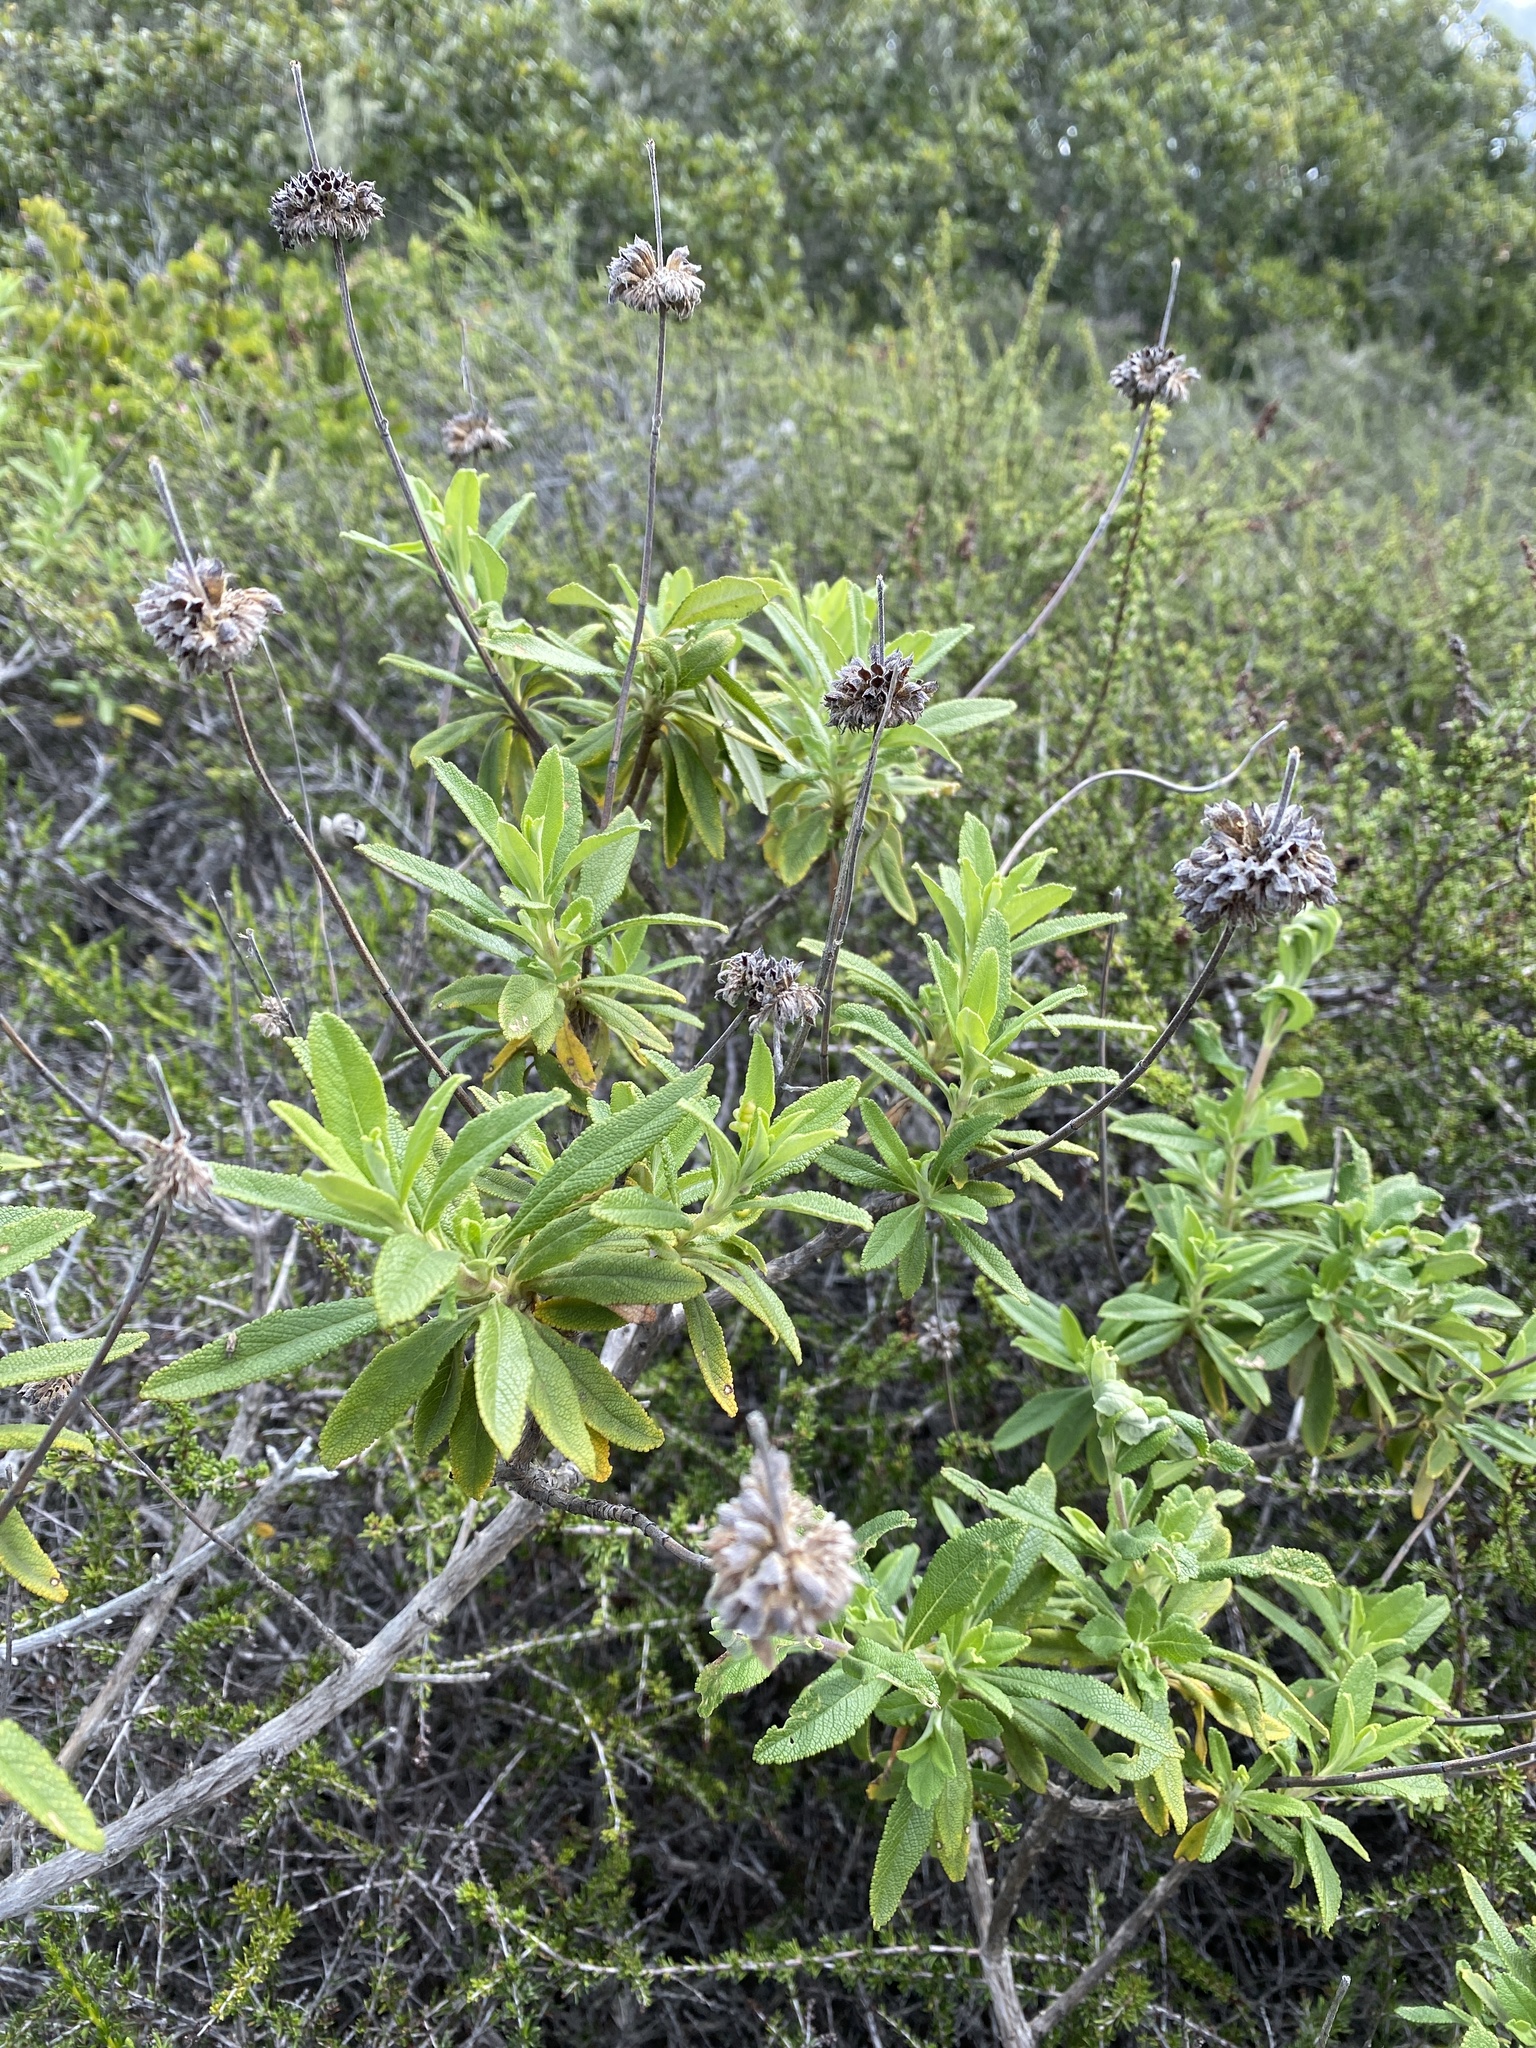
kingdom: Plantae
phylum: Tracheophyta
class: Magnoliopsida
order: Lamiales
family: Lamiaceae
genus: Salvia
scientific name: Salvia mellifera
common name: Black sage
